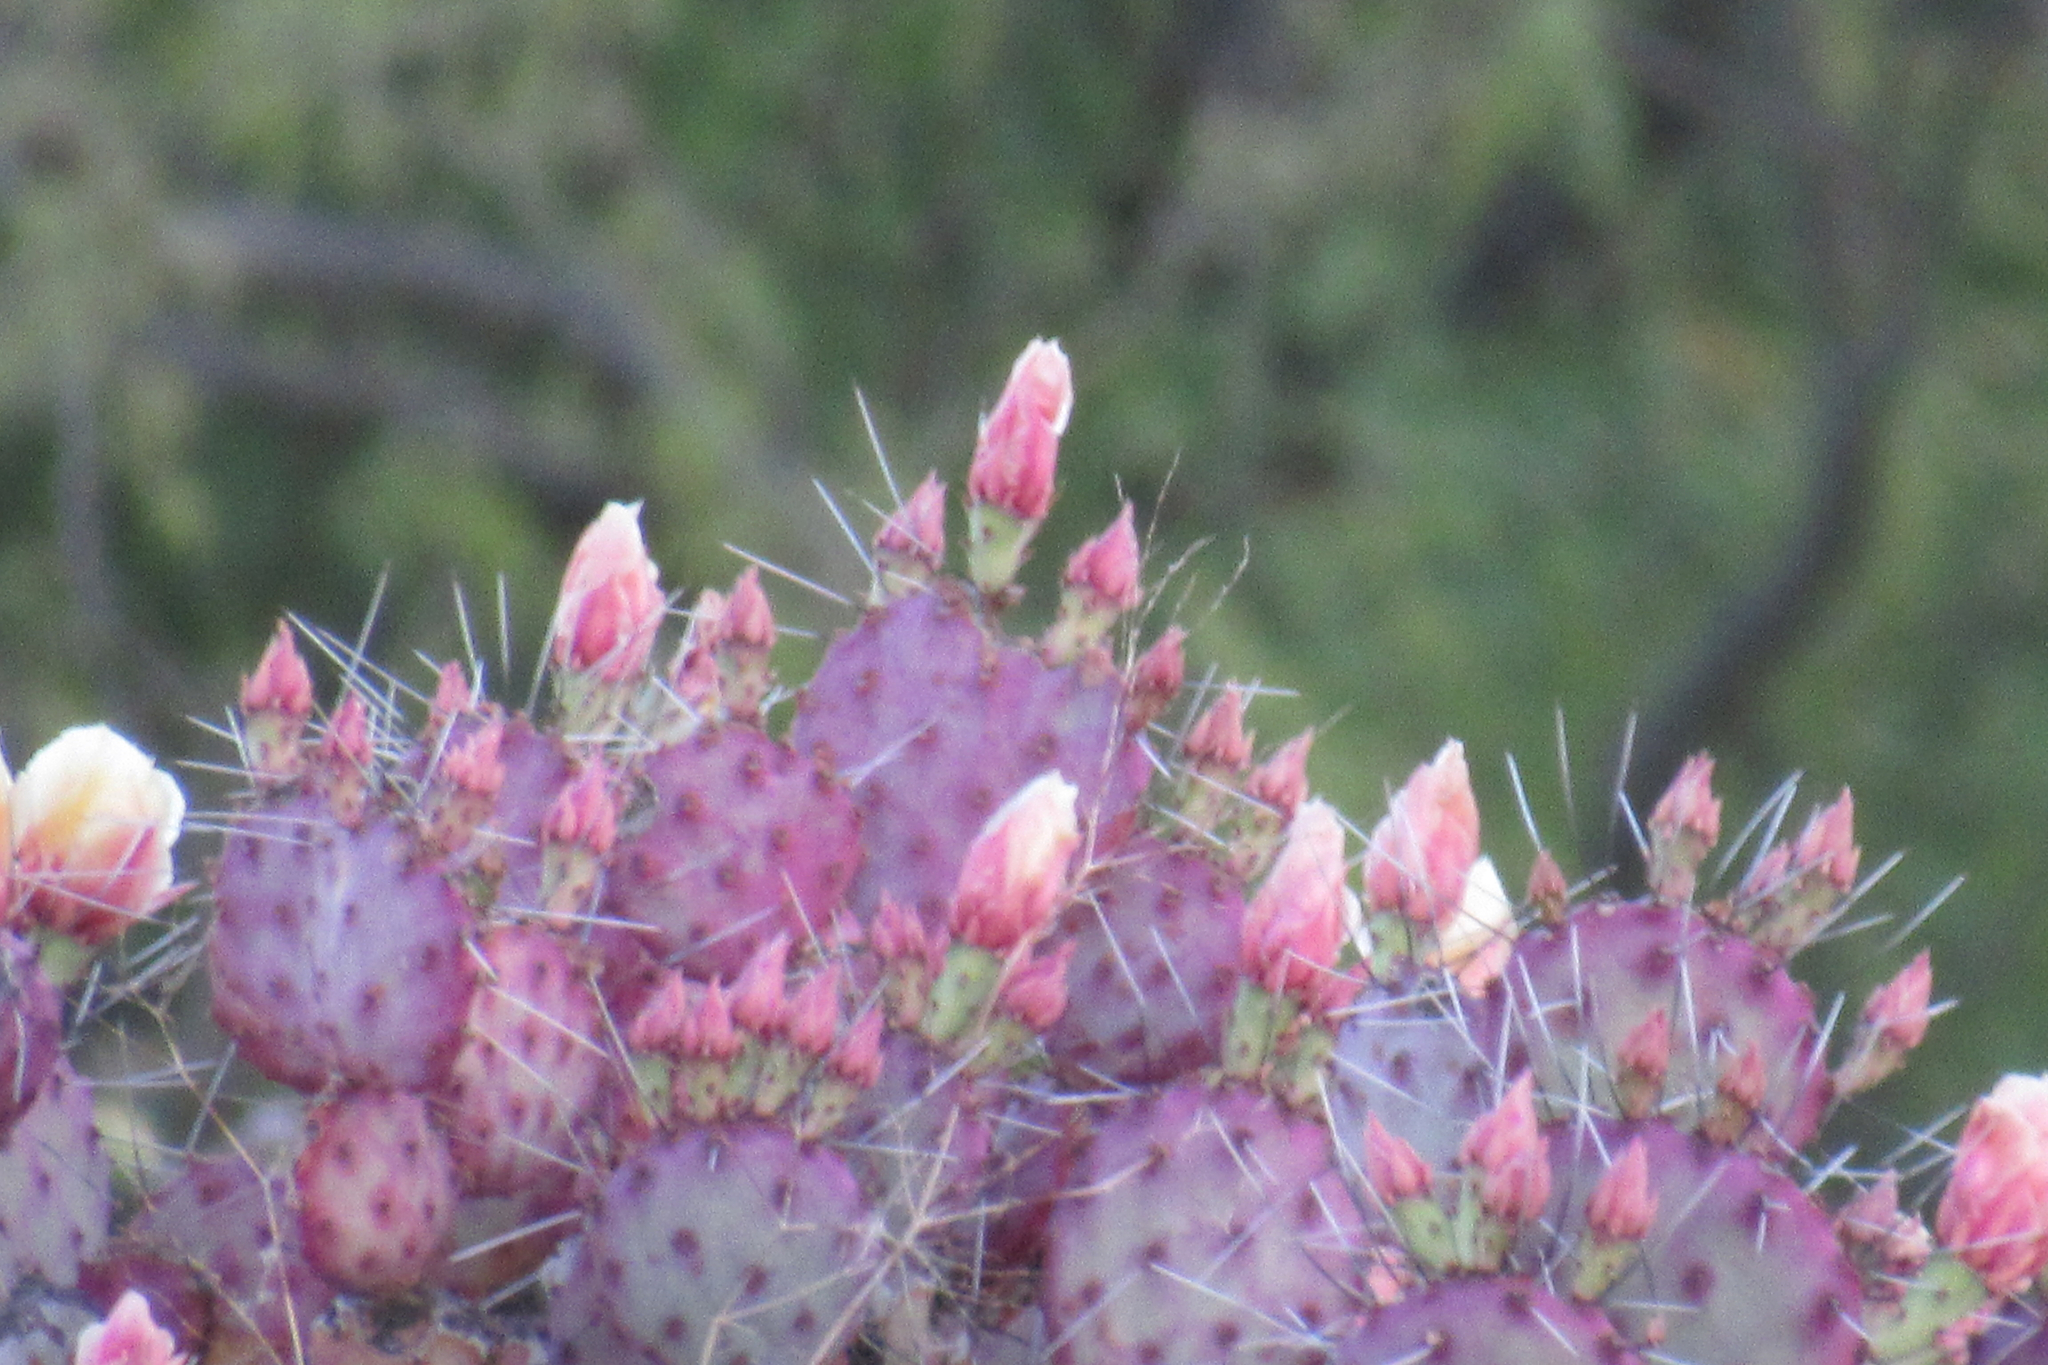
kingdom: Plantae
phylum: Tracheophyta
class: Magnoliopsida
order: Caryophyllales
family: Cactaceae
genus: Opuntia
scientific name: Opuntia gosseliniana
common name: Violet prickly-pear
